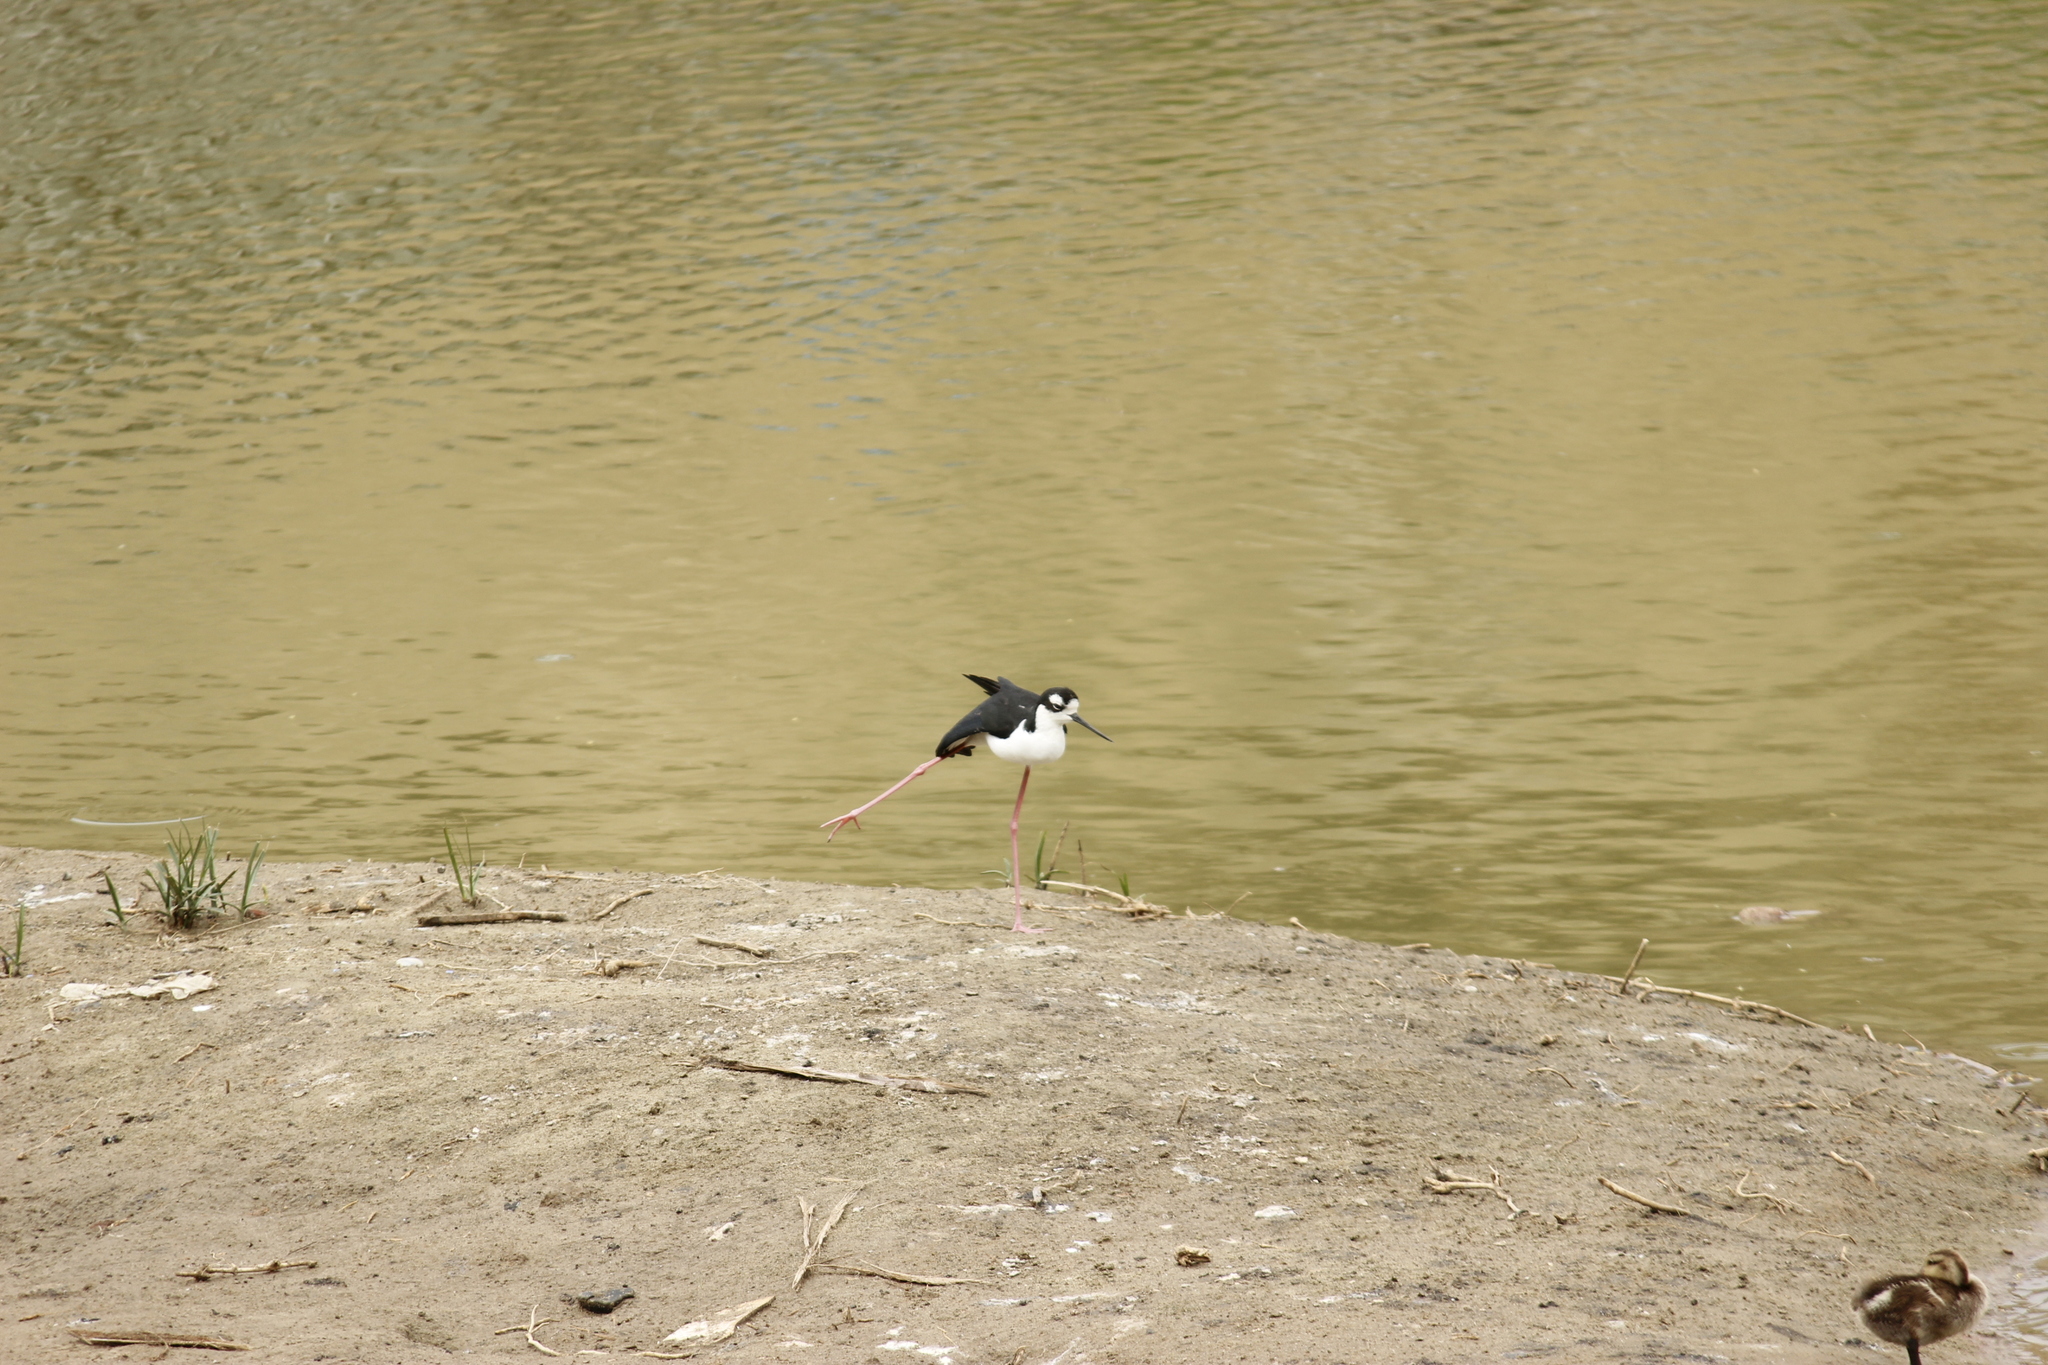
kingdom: Animalia
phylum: Chordata
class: Aves
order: Charadriiformes
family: Recurvirostridae
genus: Himantopus
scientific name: Himantopus mexicanus
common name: Black-necked stilt
